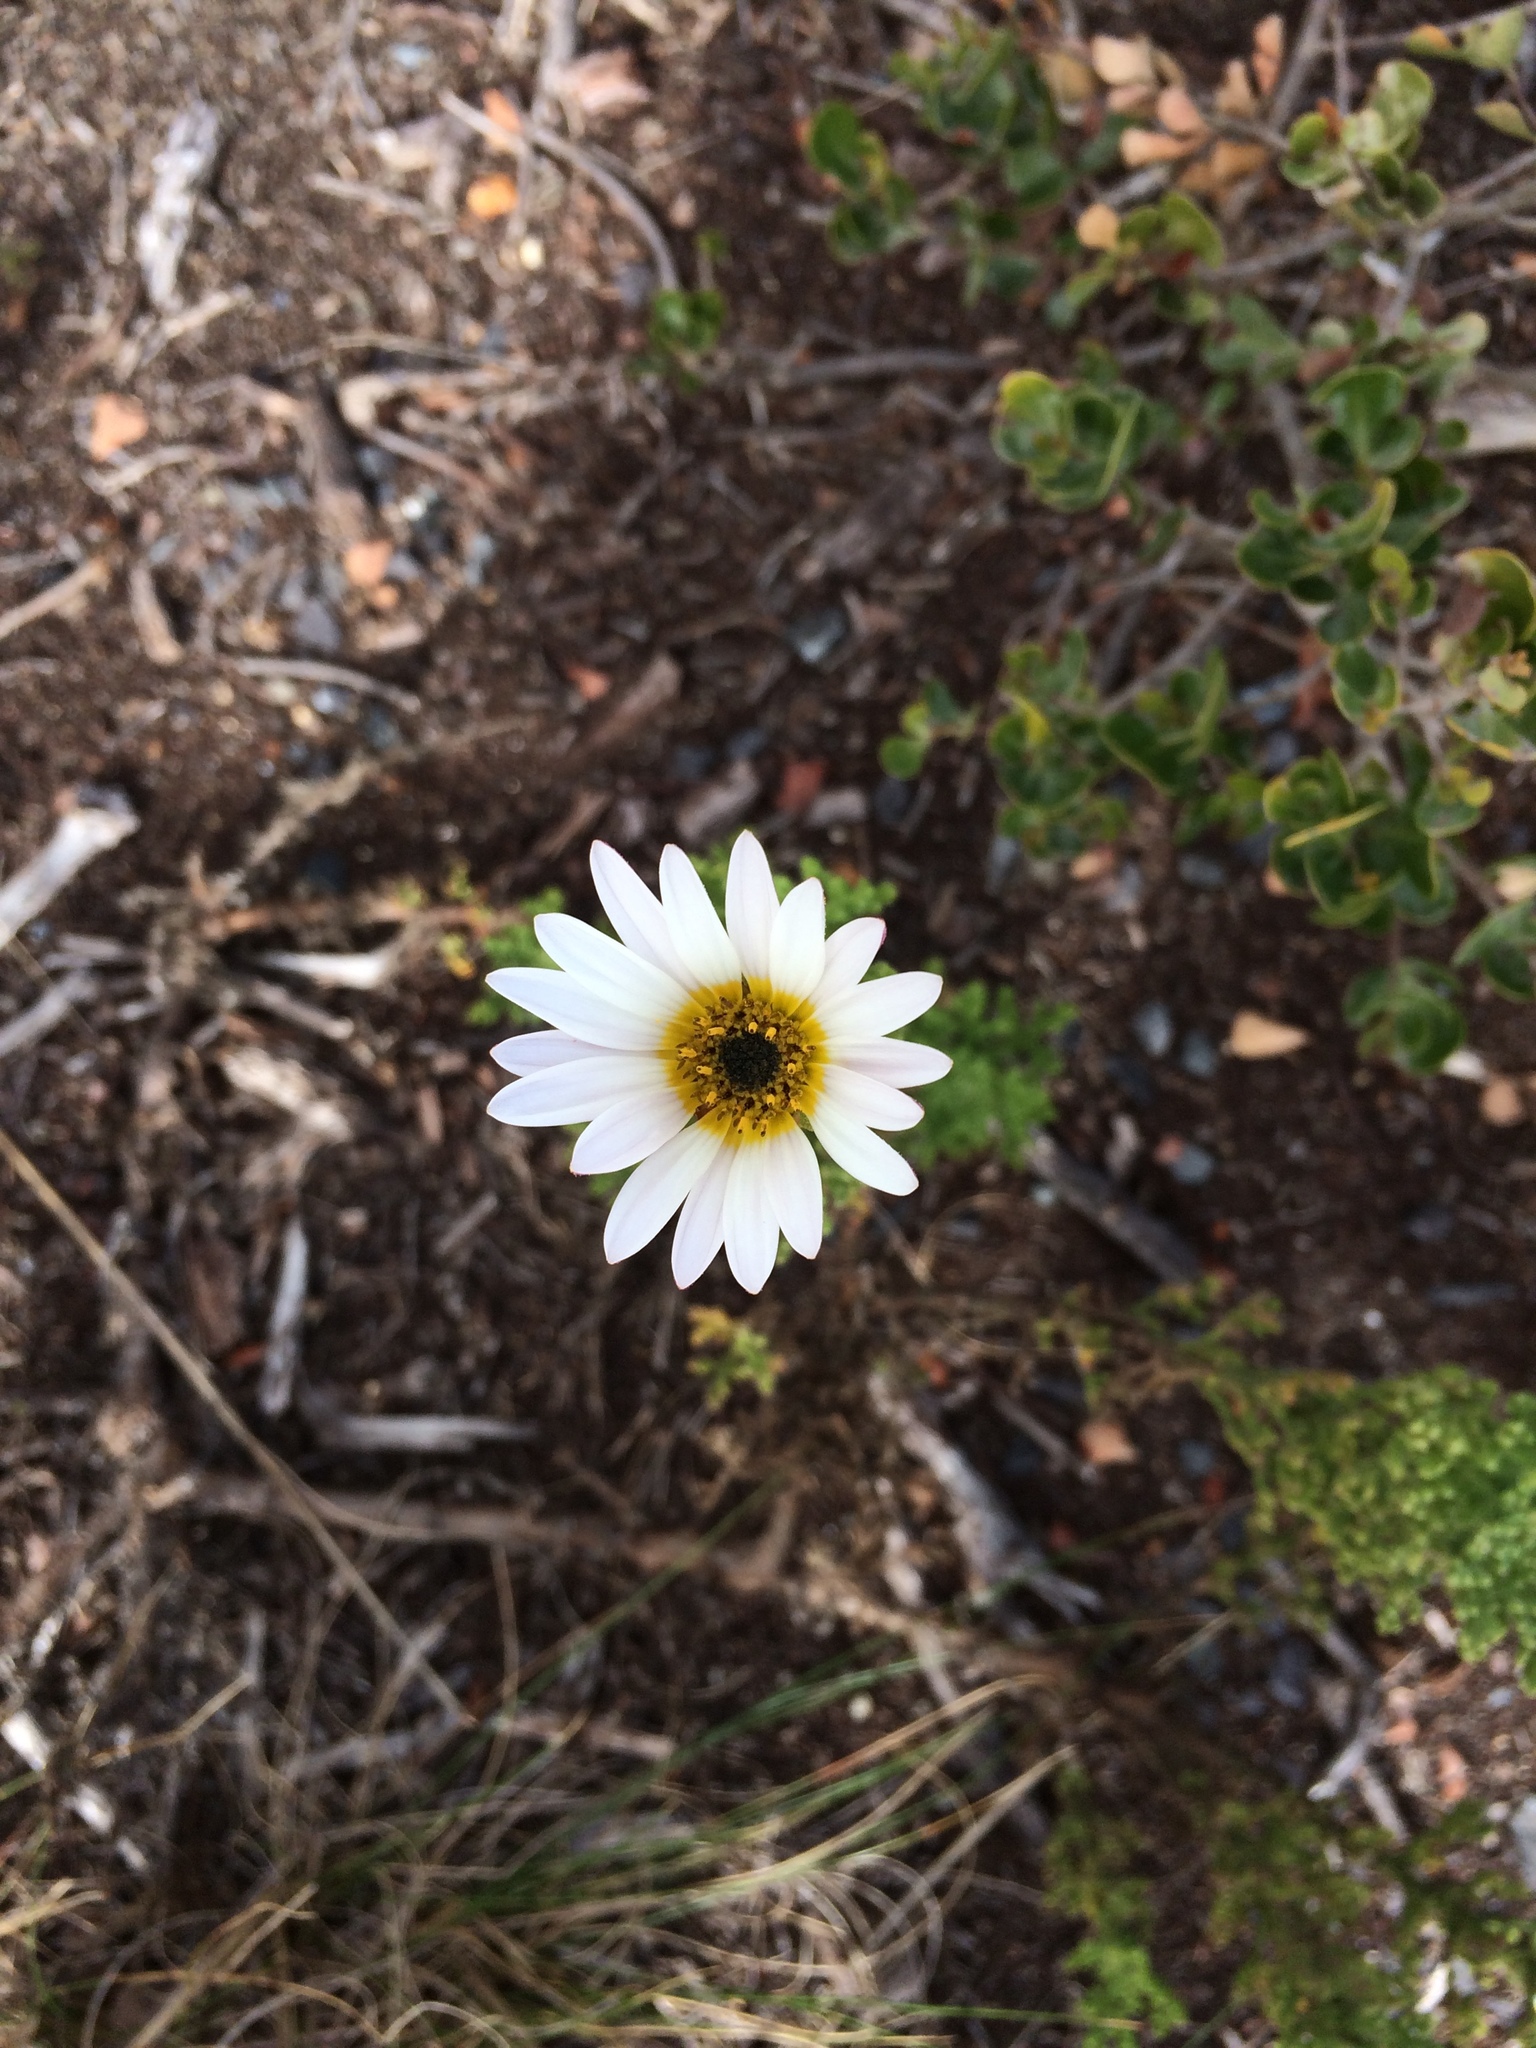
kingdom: Plantae
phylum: Tracheophyta
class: Magnoliopsida
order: Asterales
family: Asteraceae
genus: Arctotis
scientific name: Arctotis aspera
